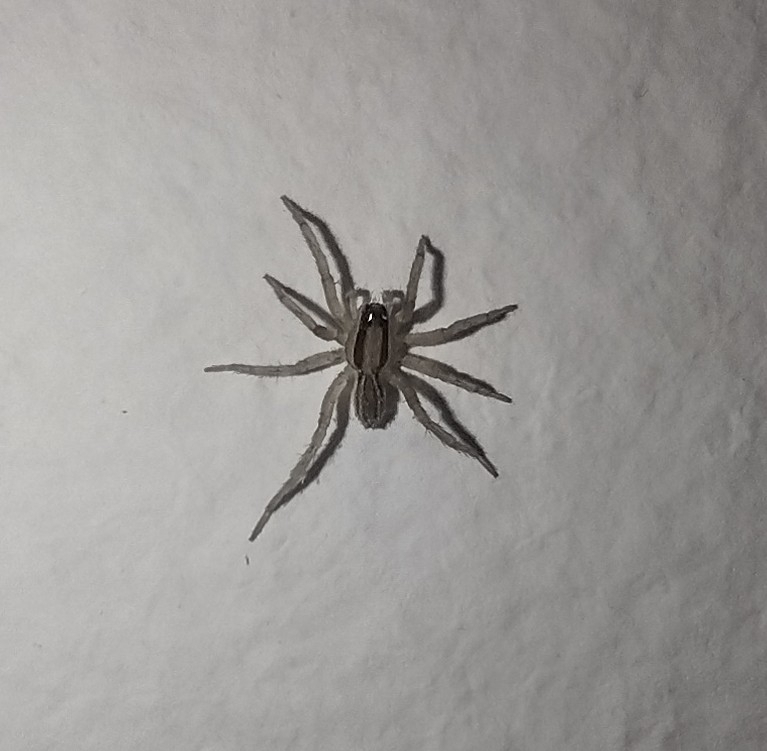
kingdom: Animalia
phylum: Arthropoda
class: Arachnida
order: Araneae
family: Lycosidae
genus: Hogna
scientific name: Hogna bivittata
